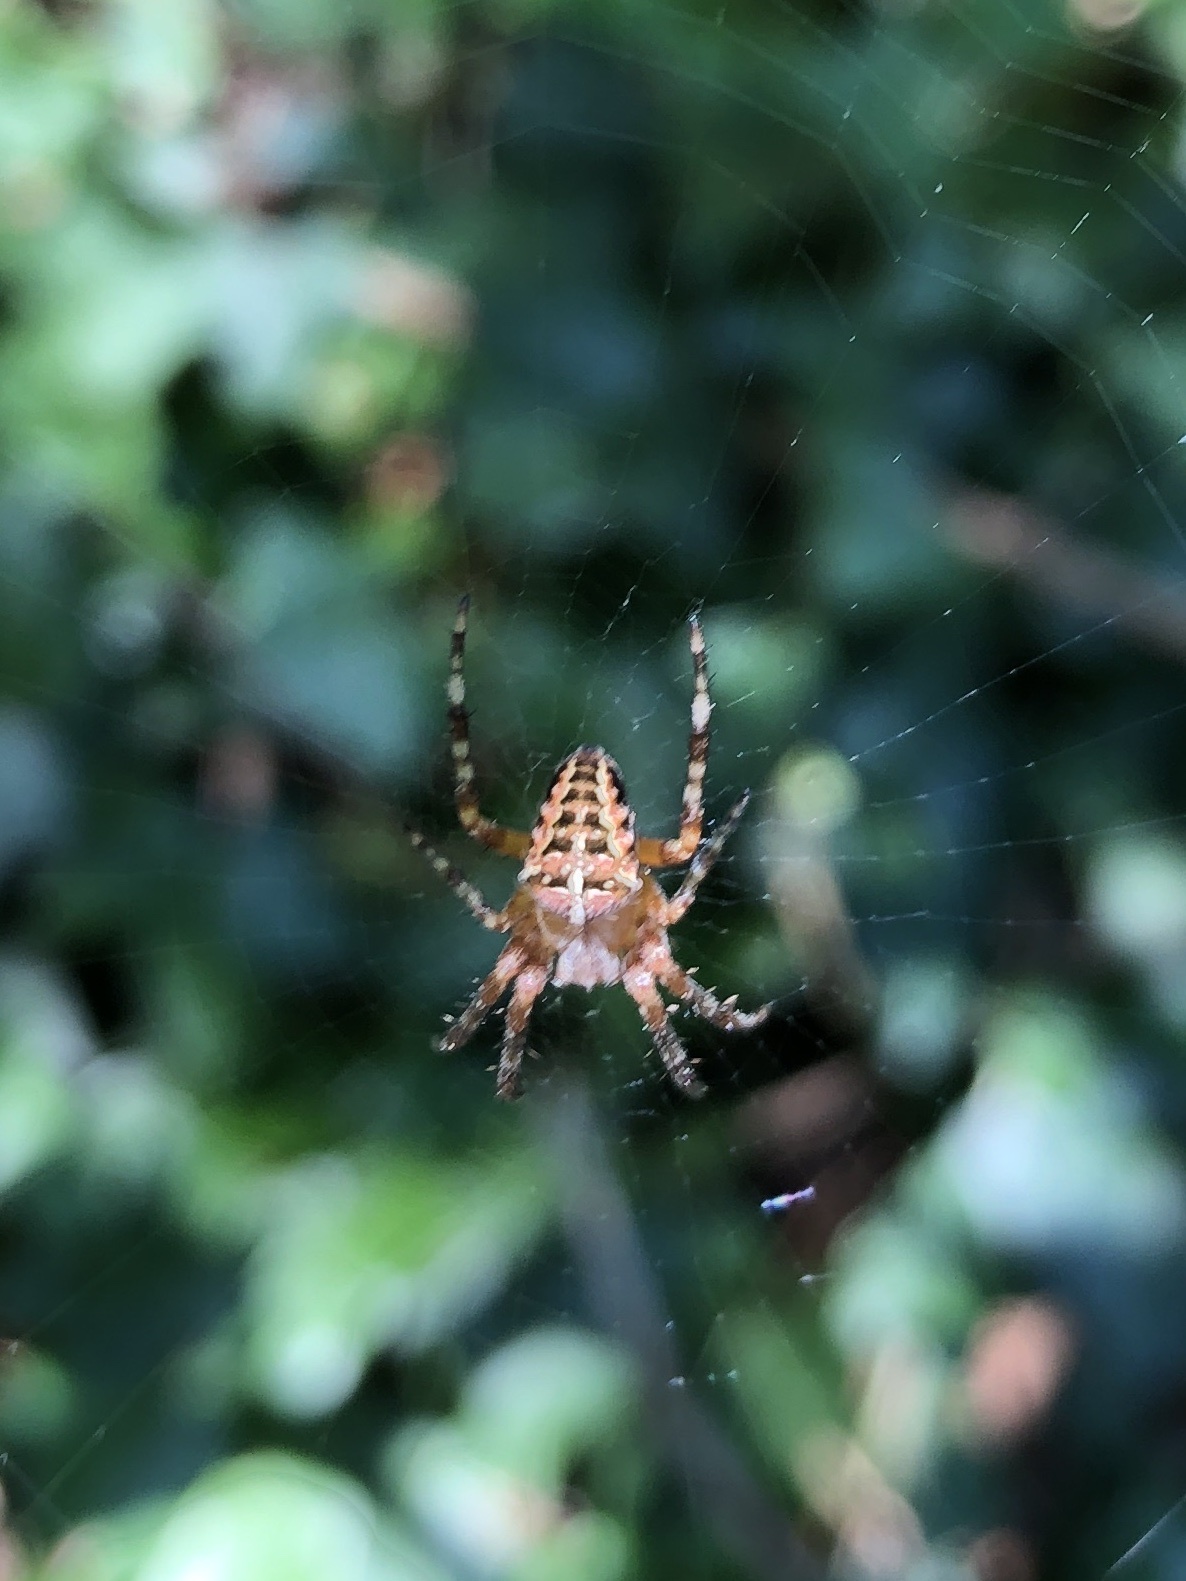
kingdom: Animalia
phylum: Arthropoda
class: Arachnida
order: Araneae
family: Araneidae
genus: Araneus
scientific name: Araneus diadematus
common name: Cross orbweaver
